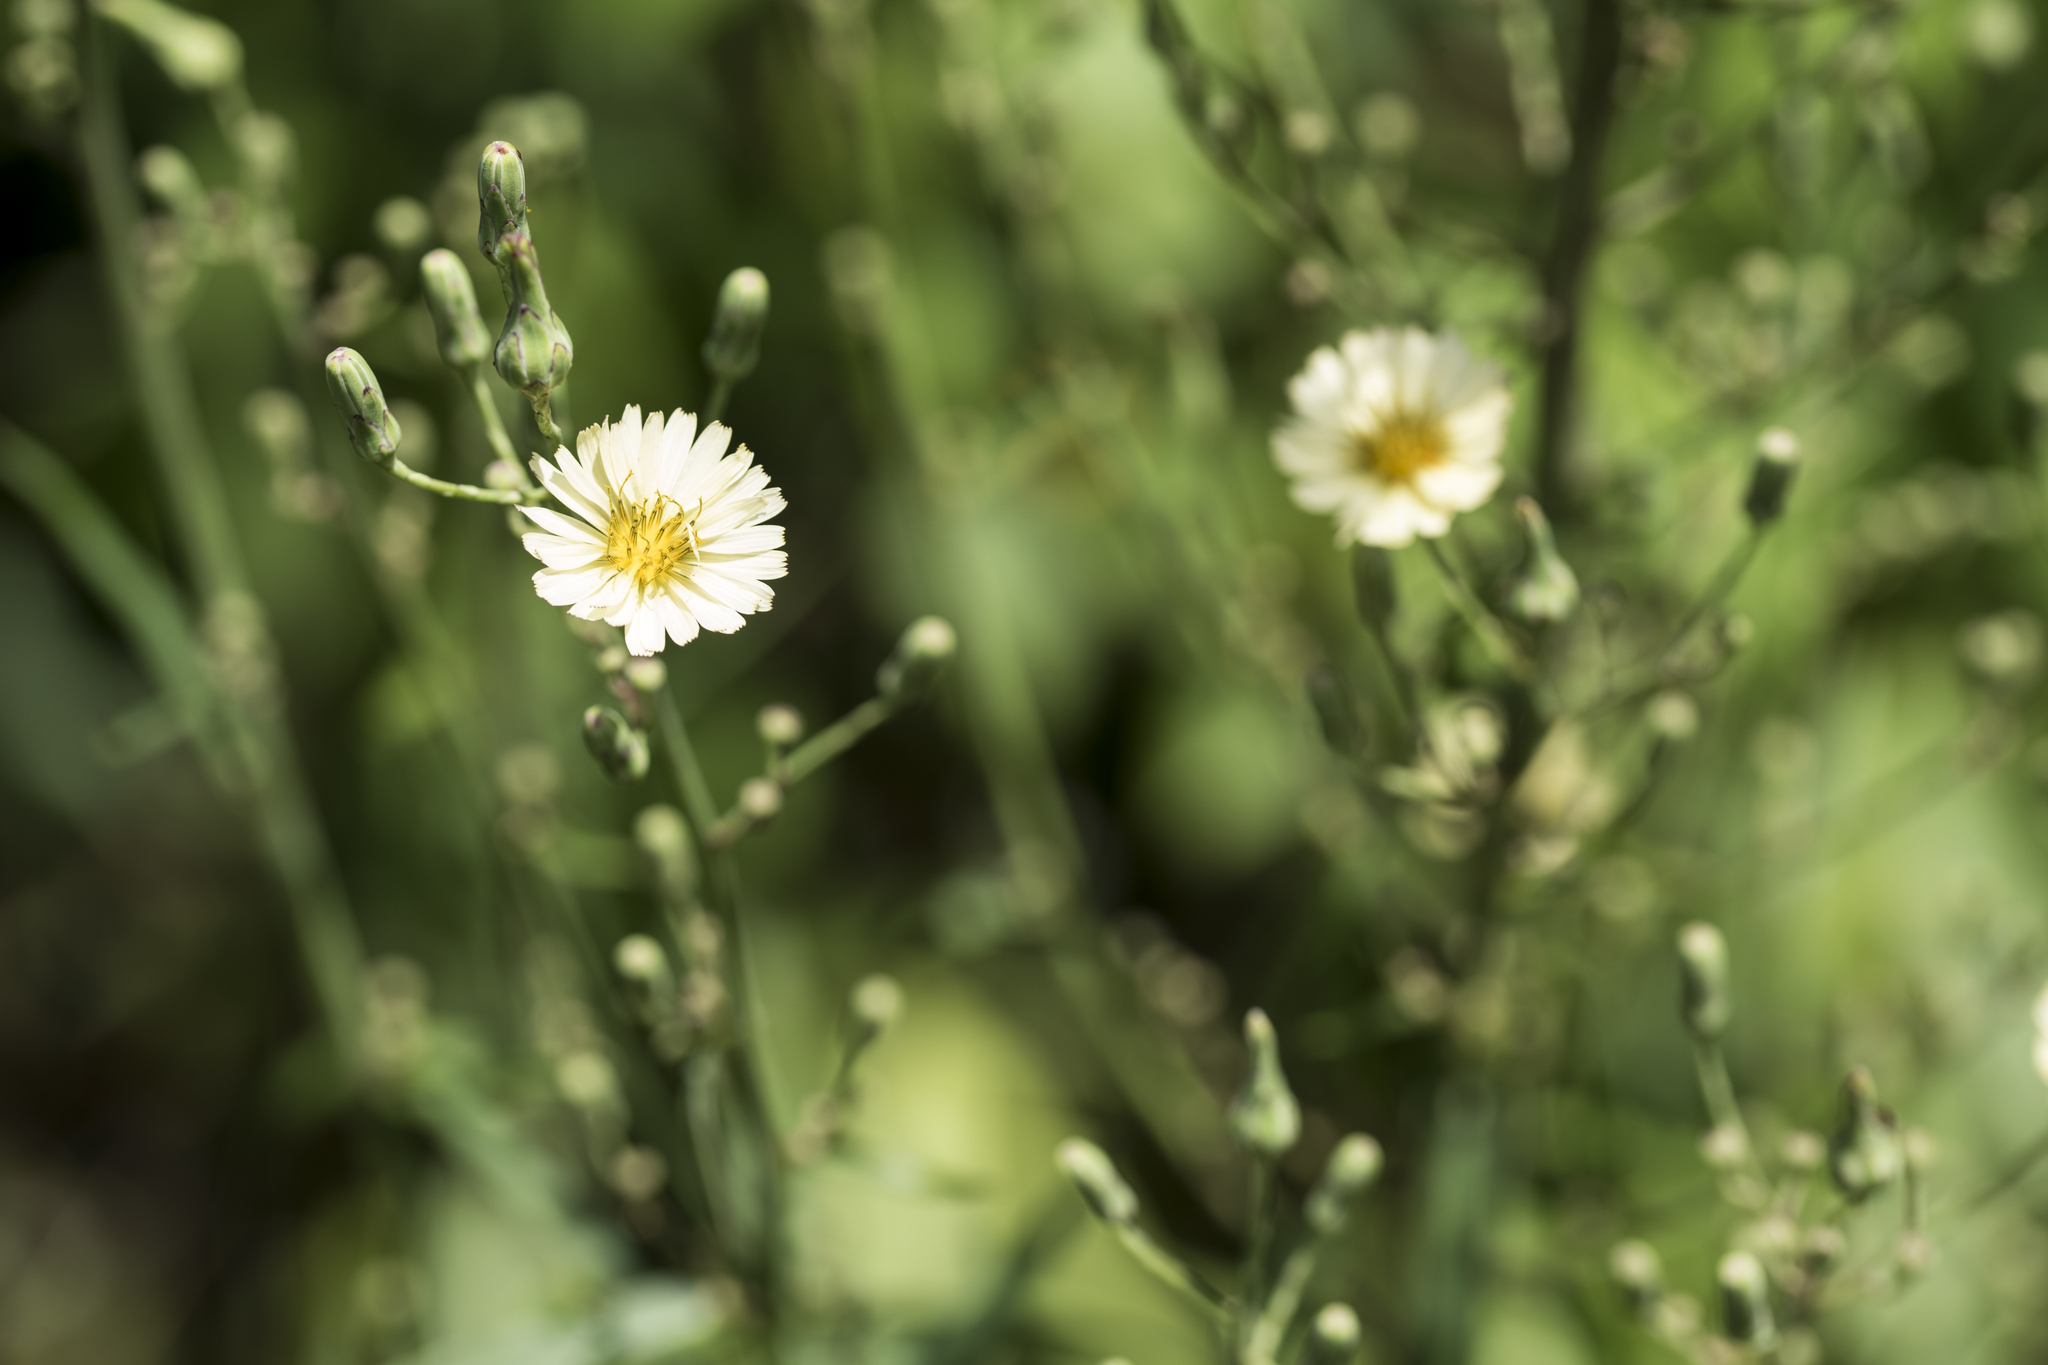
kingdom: Plantae
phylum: Tracheophyta
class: Magnoliopsida
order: Asterales
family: Asteraceae
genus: Lactuca
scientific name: Lactuca indica
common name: Wild lettuce
